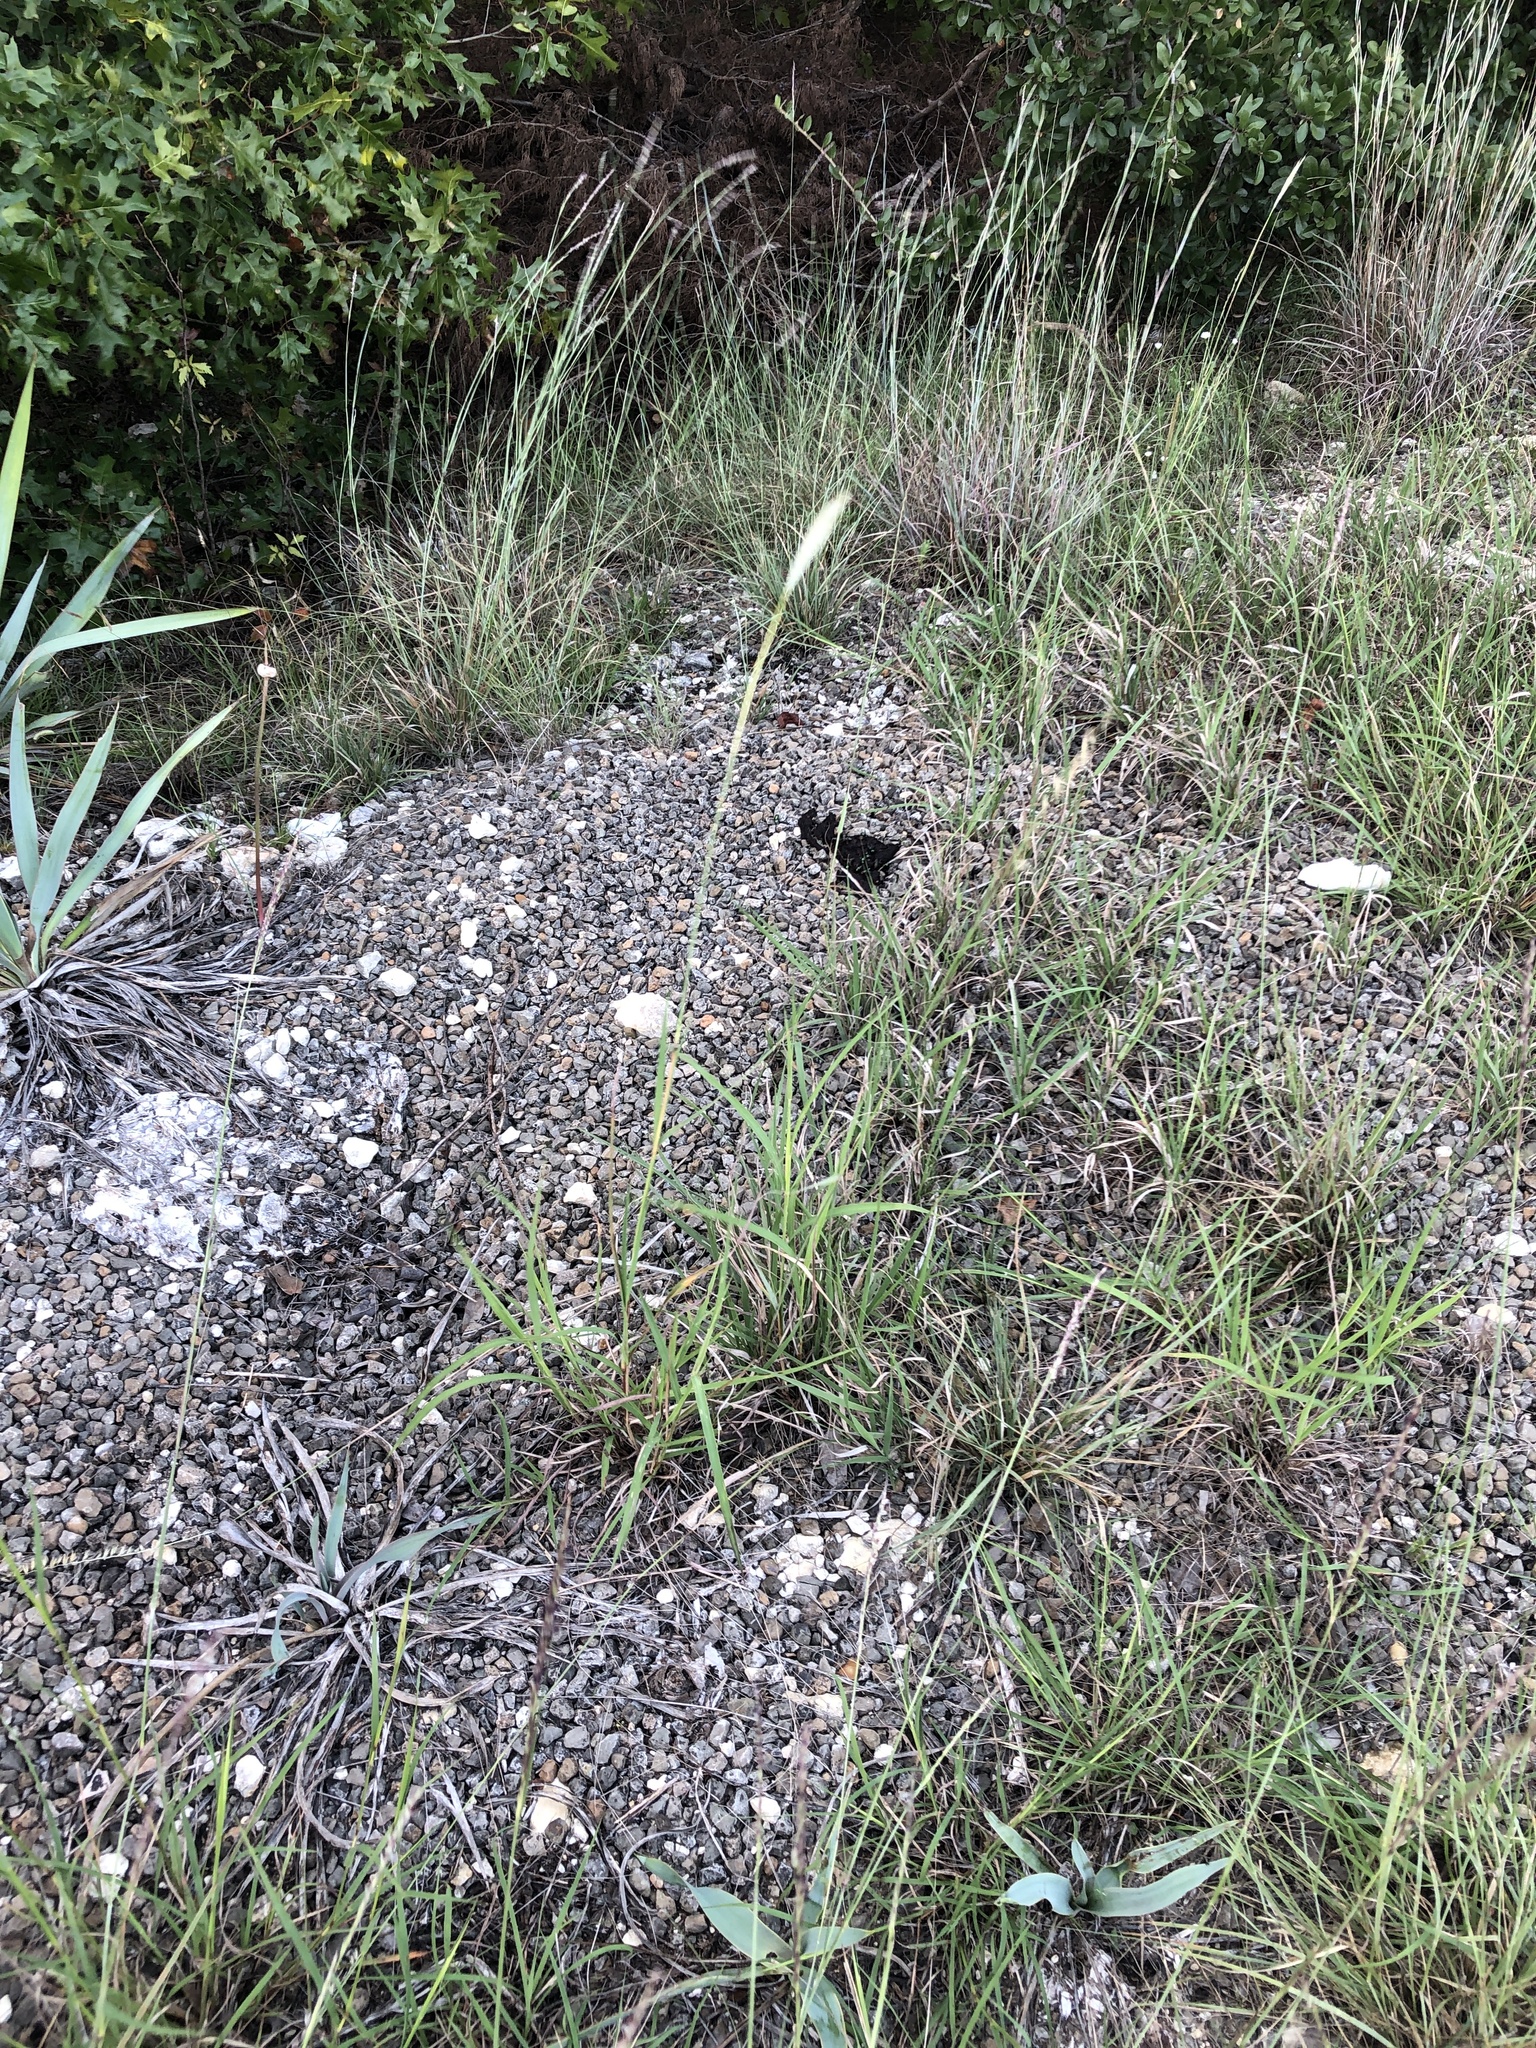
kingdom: Plantae
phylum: Tracheophyta
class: Liliopsida
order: Poales
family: Poaceae
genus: Bothriochloa
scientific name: Bothriochloa torreyana
